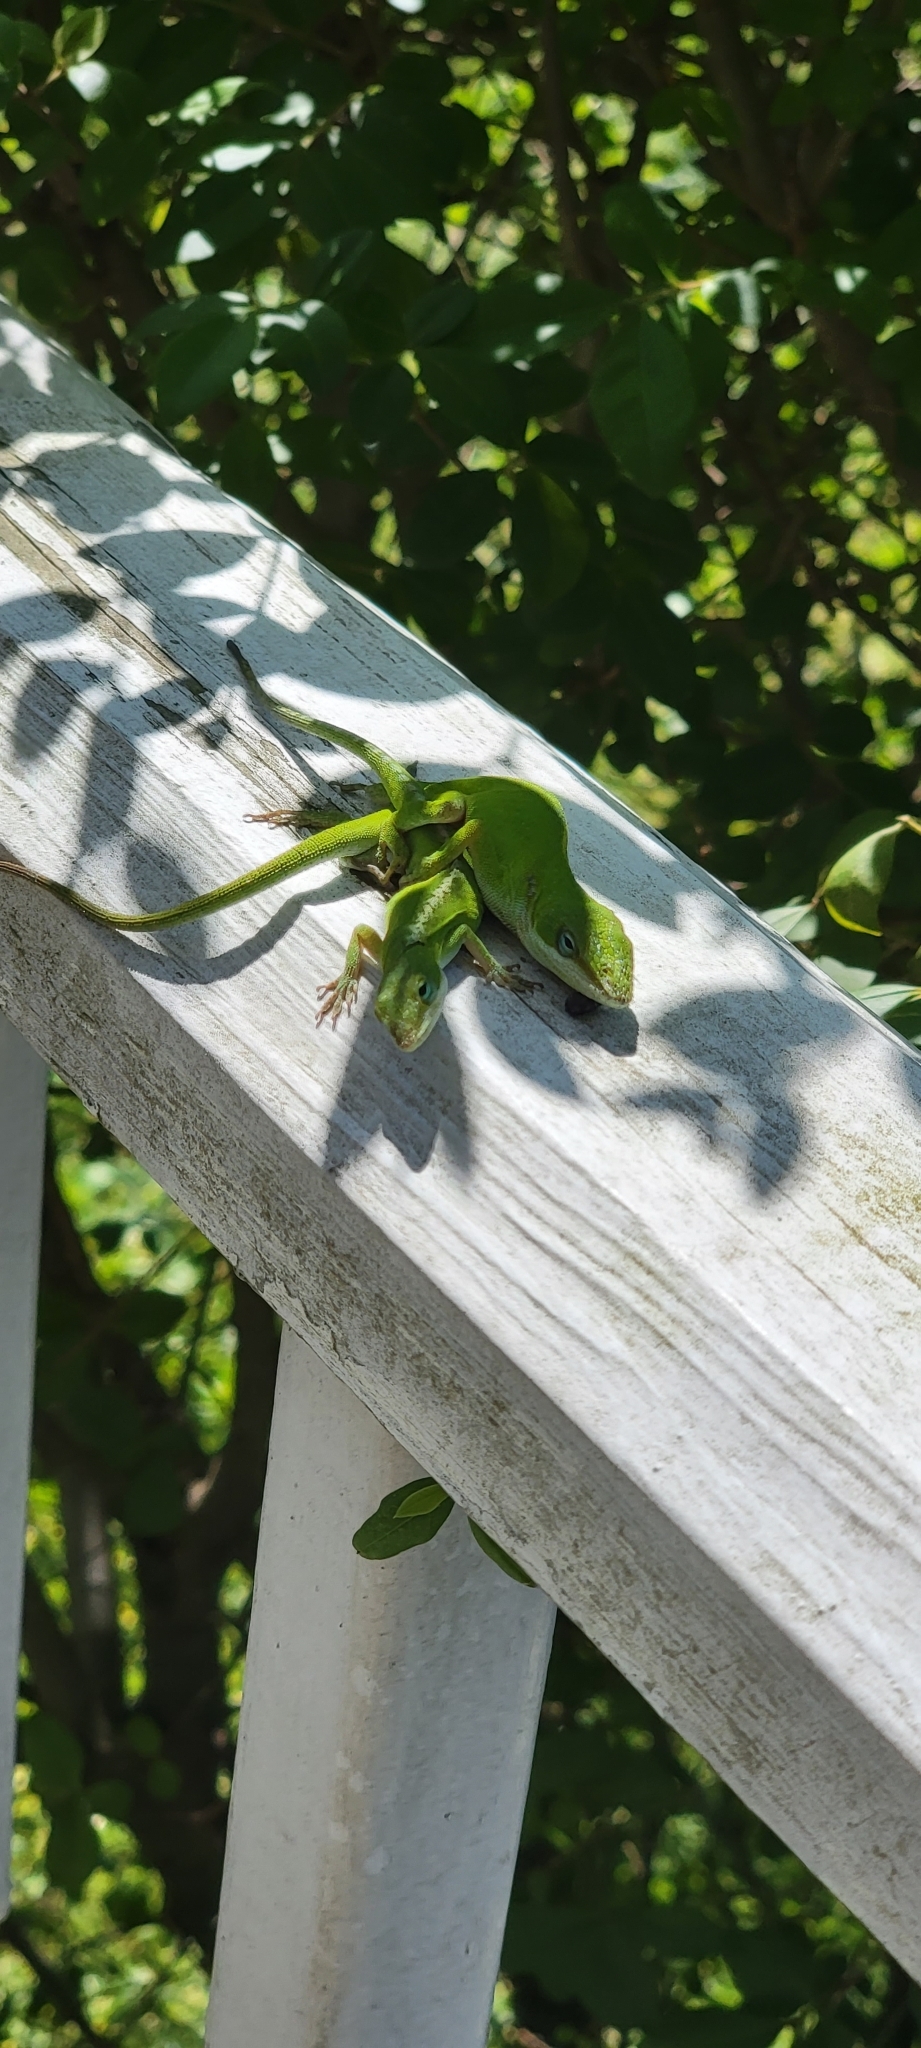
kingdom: Animalia
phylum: Chordata
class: Squamata
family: Dactyloidae
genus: Anolis
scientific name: Anolis carolinensis
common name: Green anole
